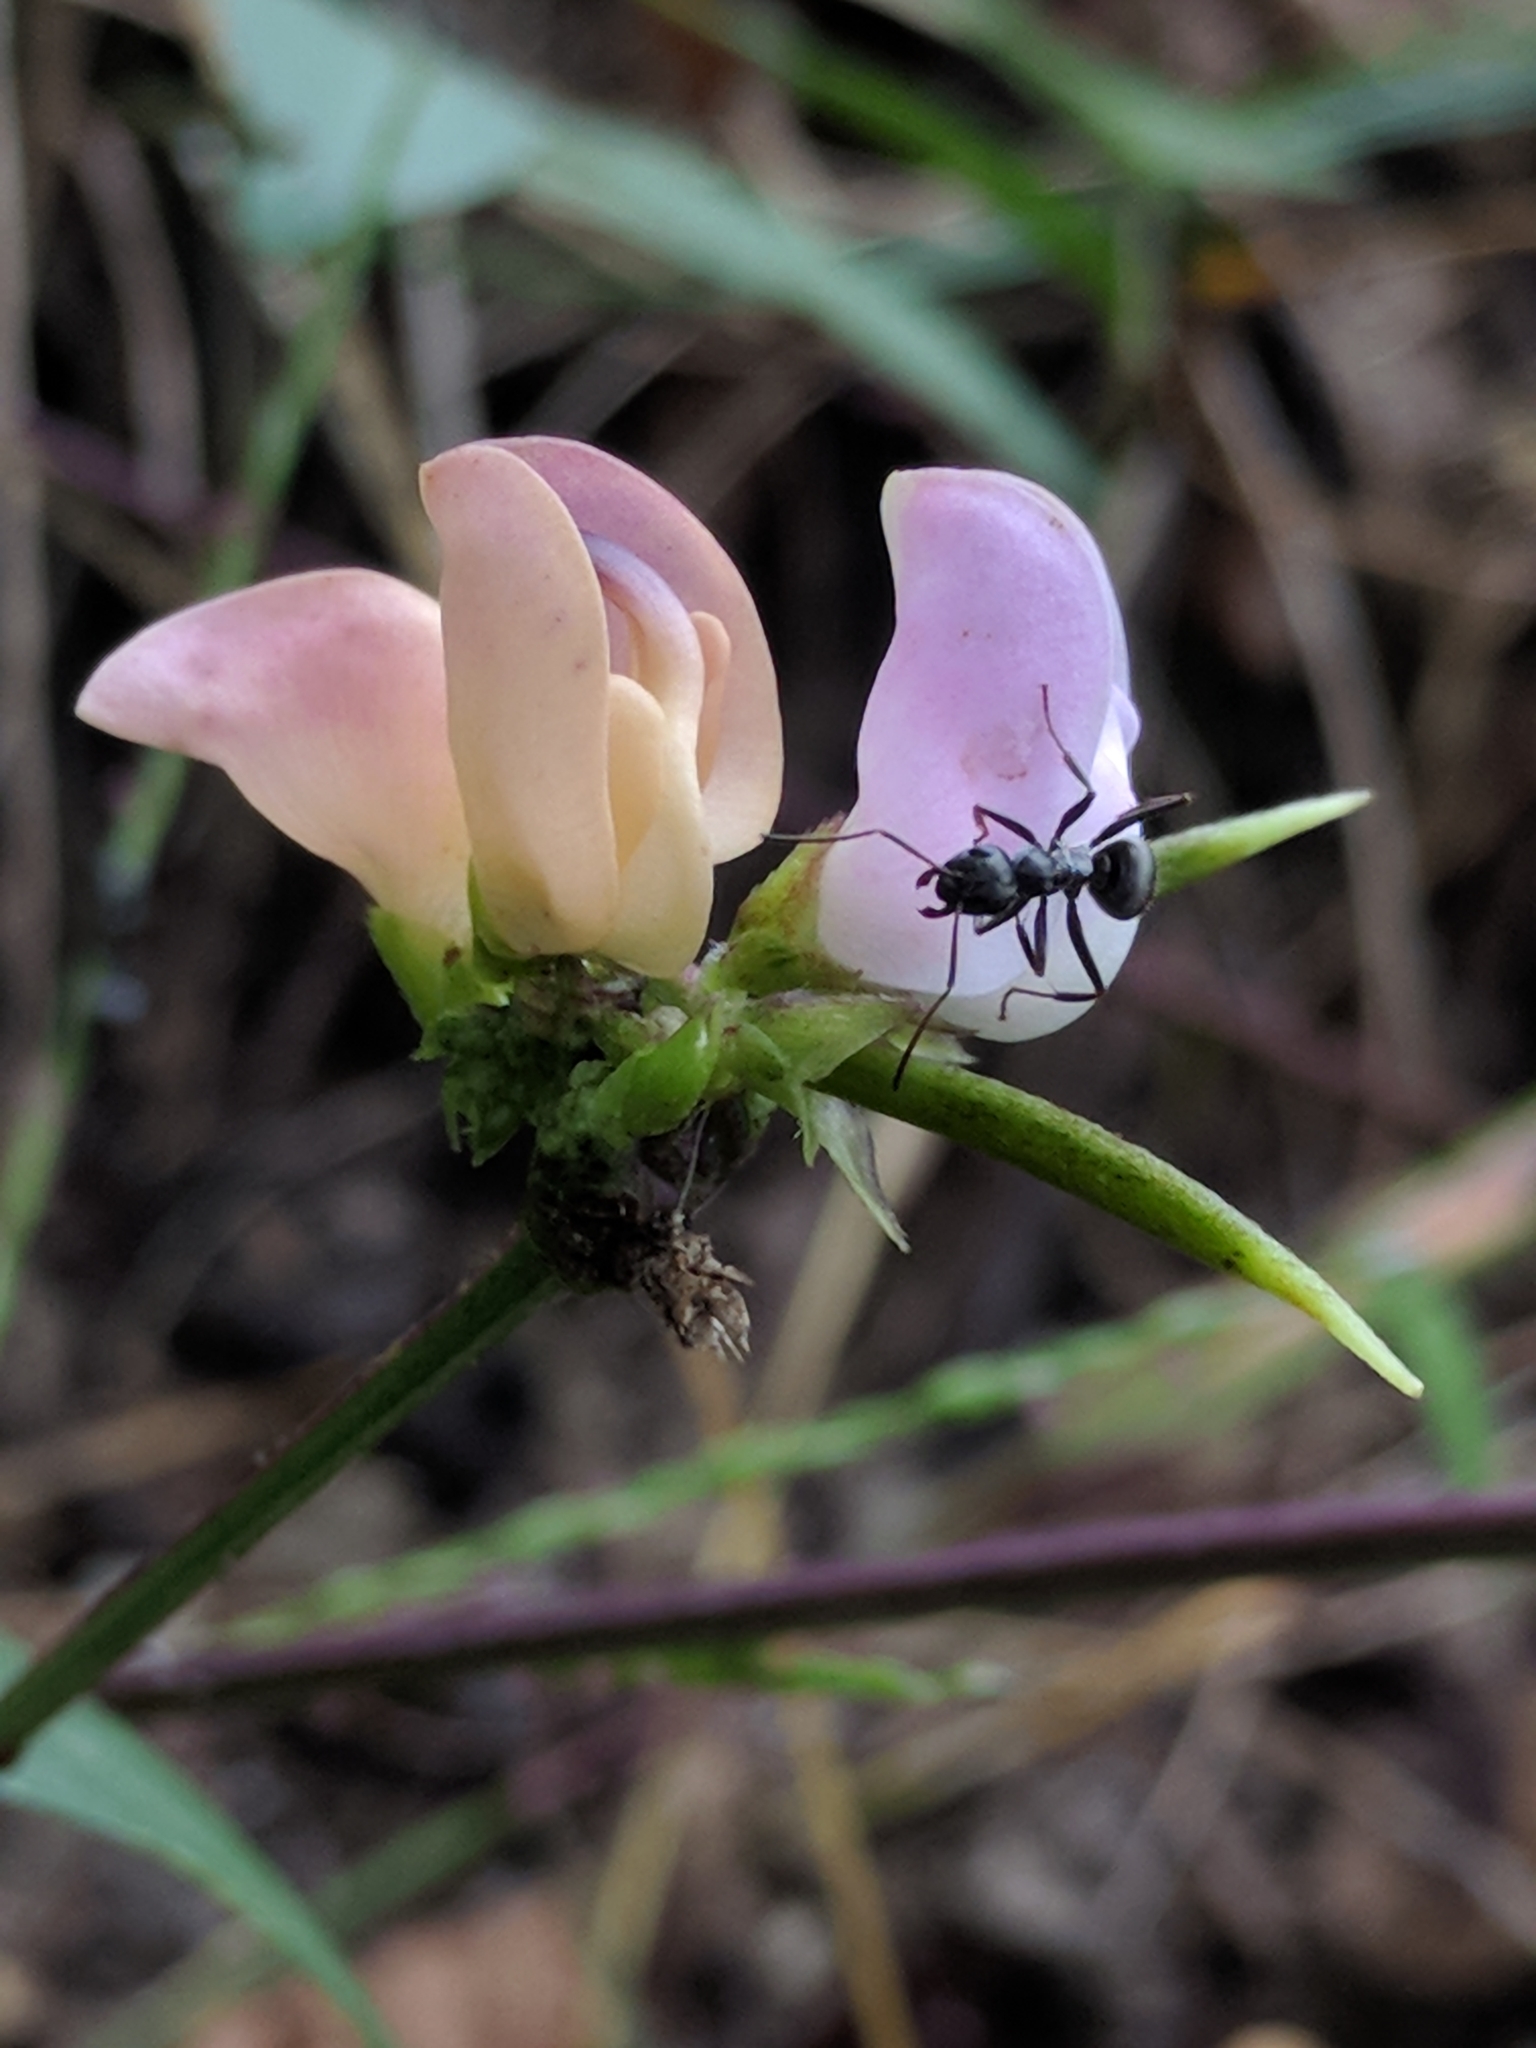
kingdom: Plantae
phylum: Tracheophyta
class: Magnoliopsida
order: Fabales
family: Fabaceae
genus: Strophostyles
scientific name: Strophostyles helvola
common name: Trailing wild bean
